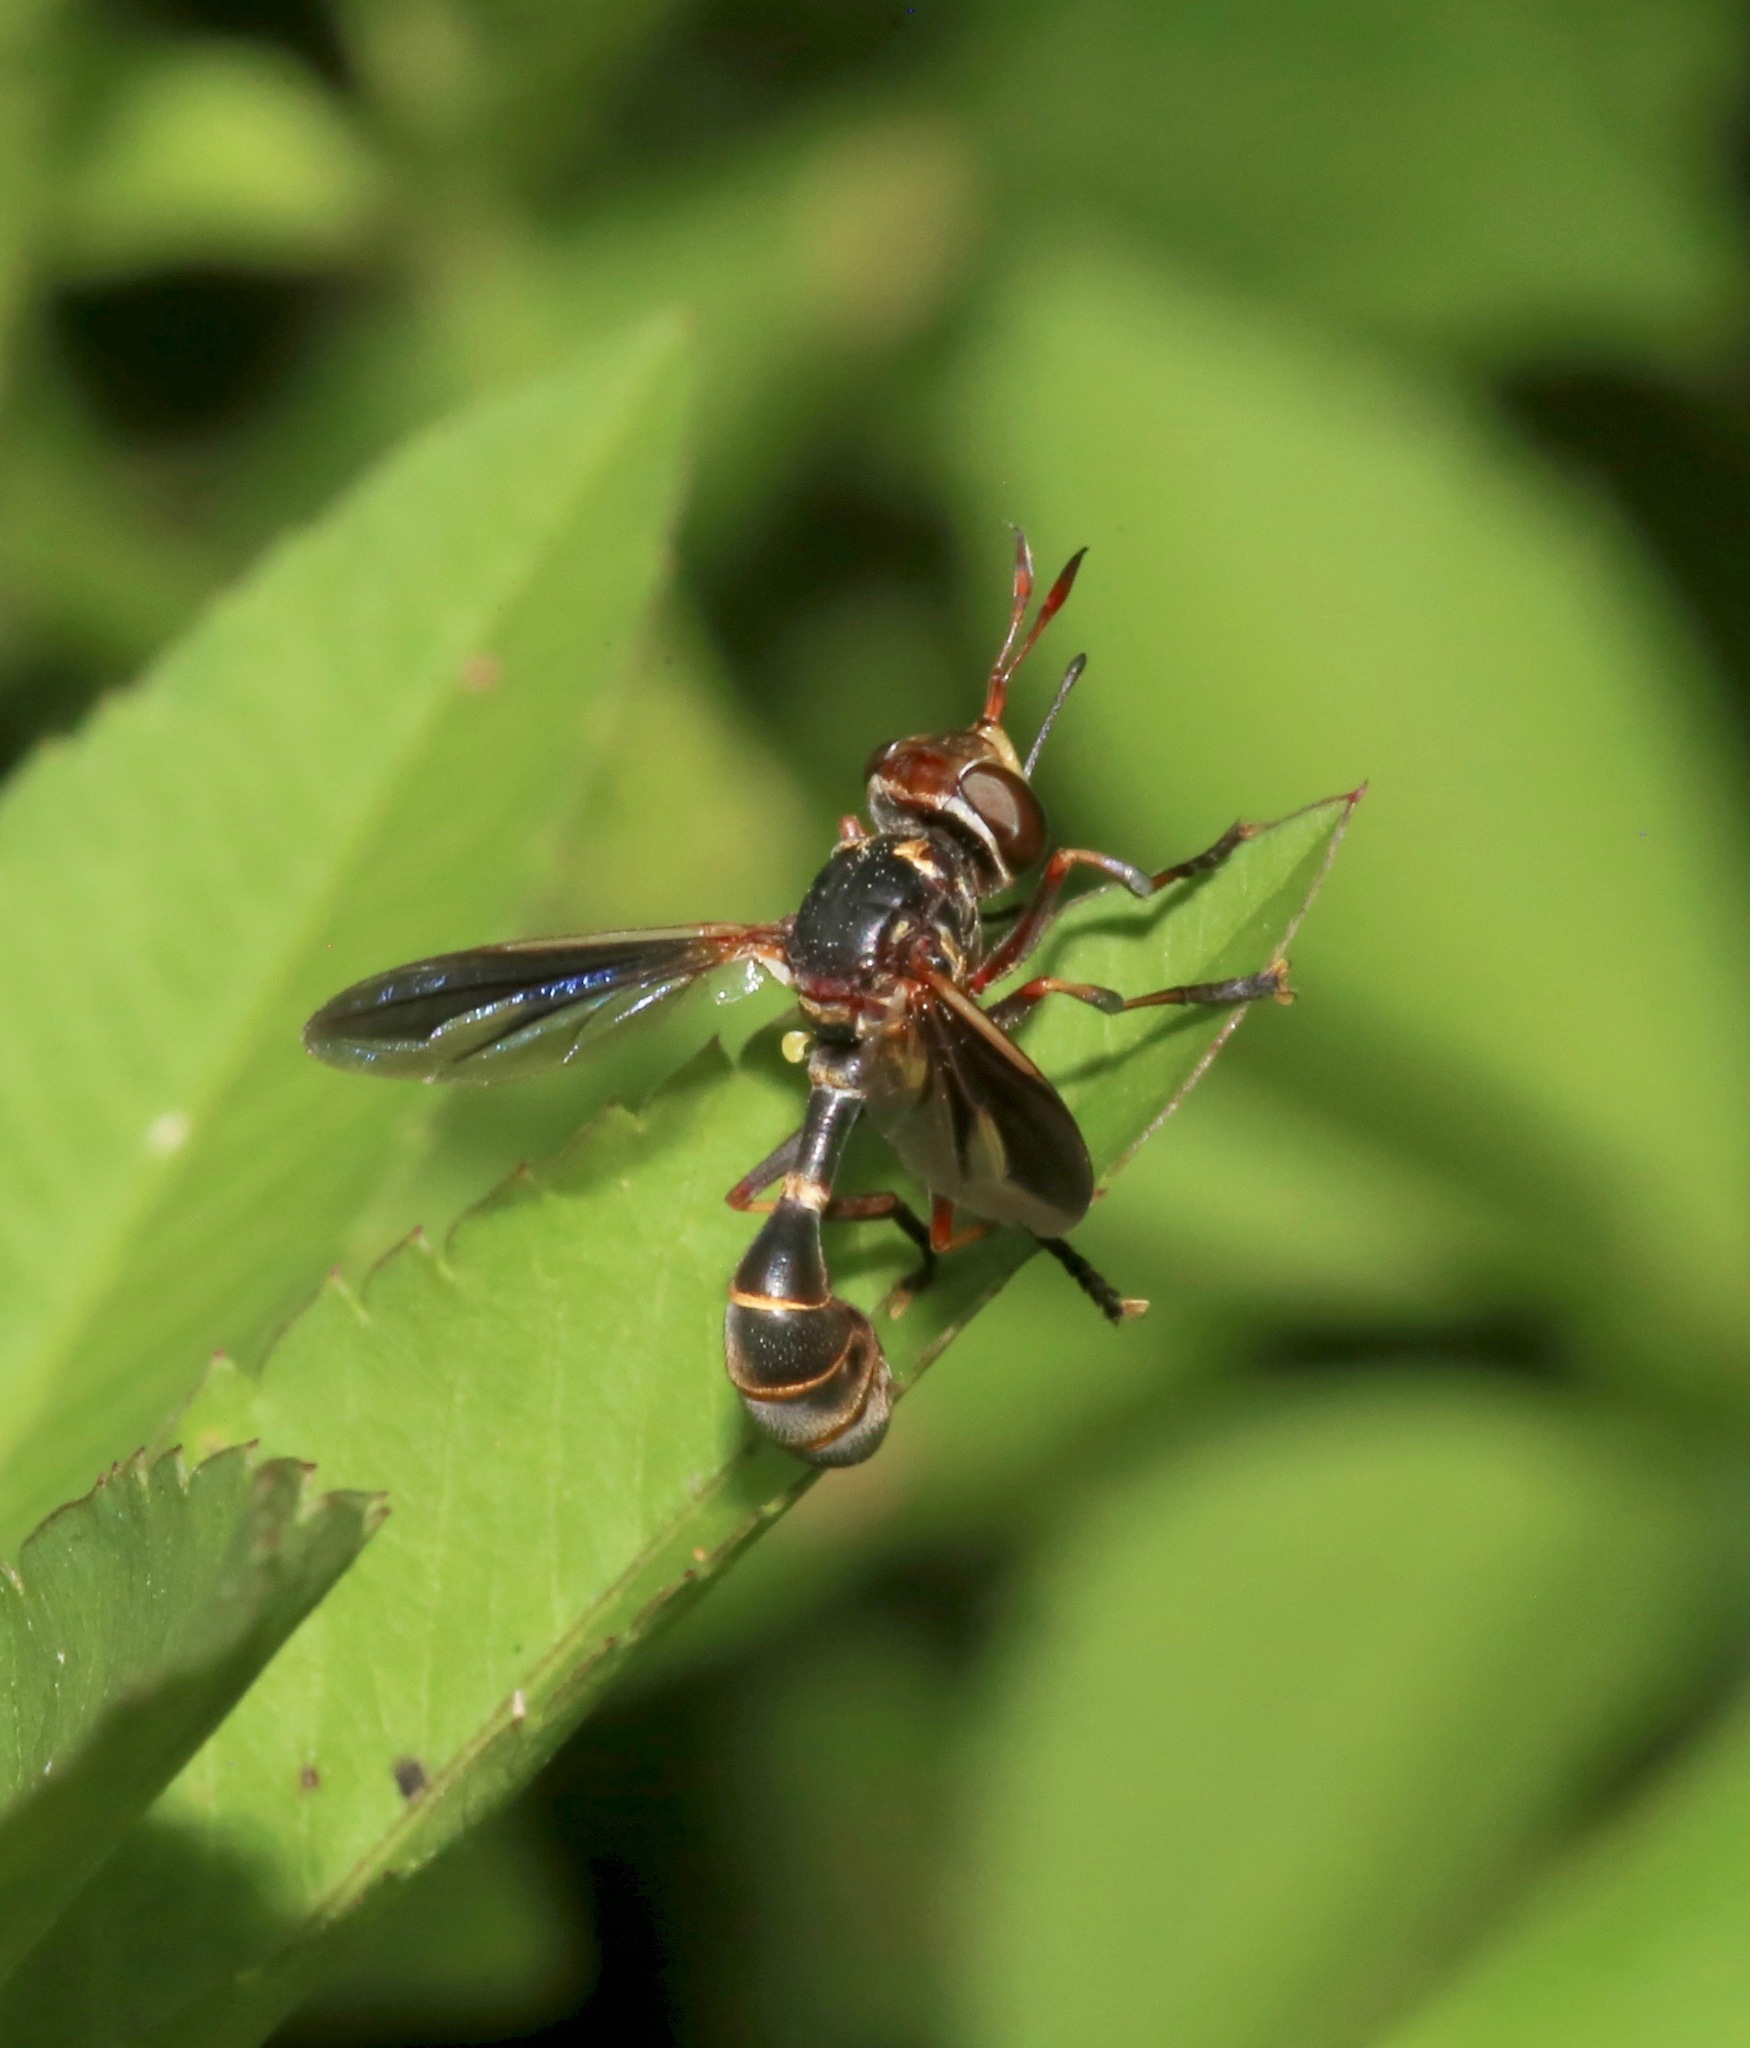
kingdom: Animalia
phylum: Arthropoda
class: Insecta
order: Diptera
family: Conopidae
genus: Physoconops
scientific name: Physoconops excisus
